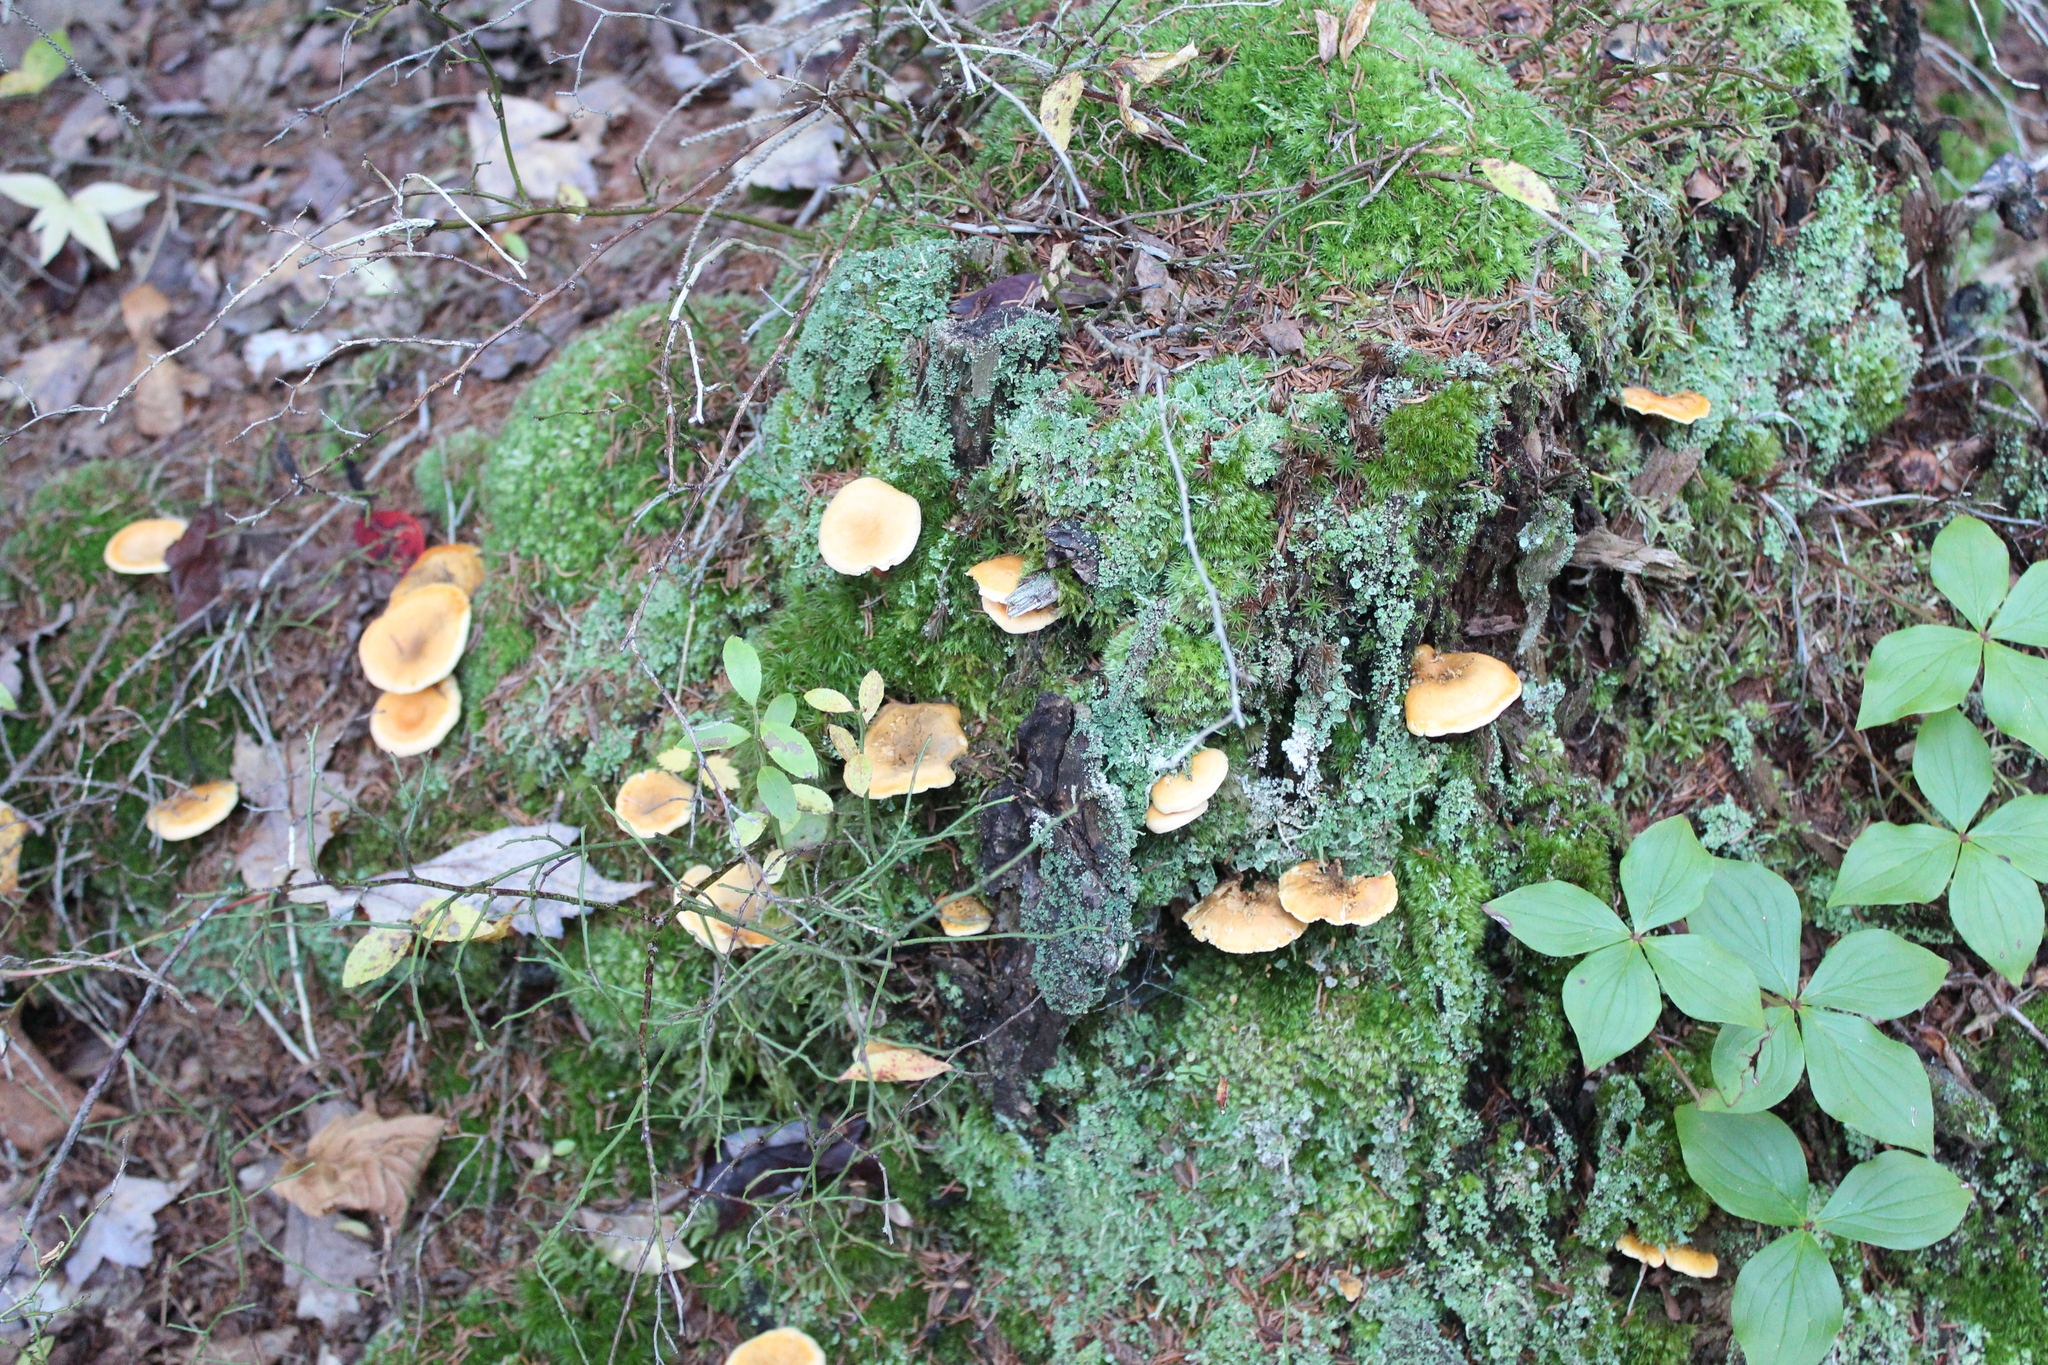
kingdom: Fungi
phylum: Basidiomycota
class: Agaricomycetes
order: Boletales
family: Hygrophoropsidaceae
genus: Hygrophoropsis
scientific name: Hygrophoropsis aurantiaca
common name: False chanterelle
